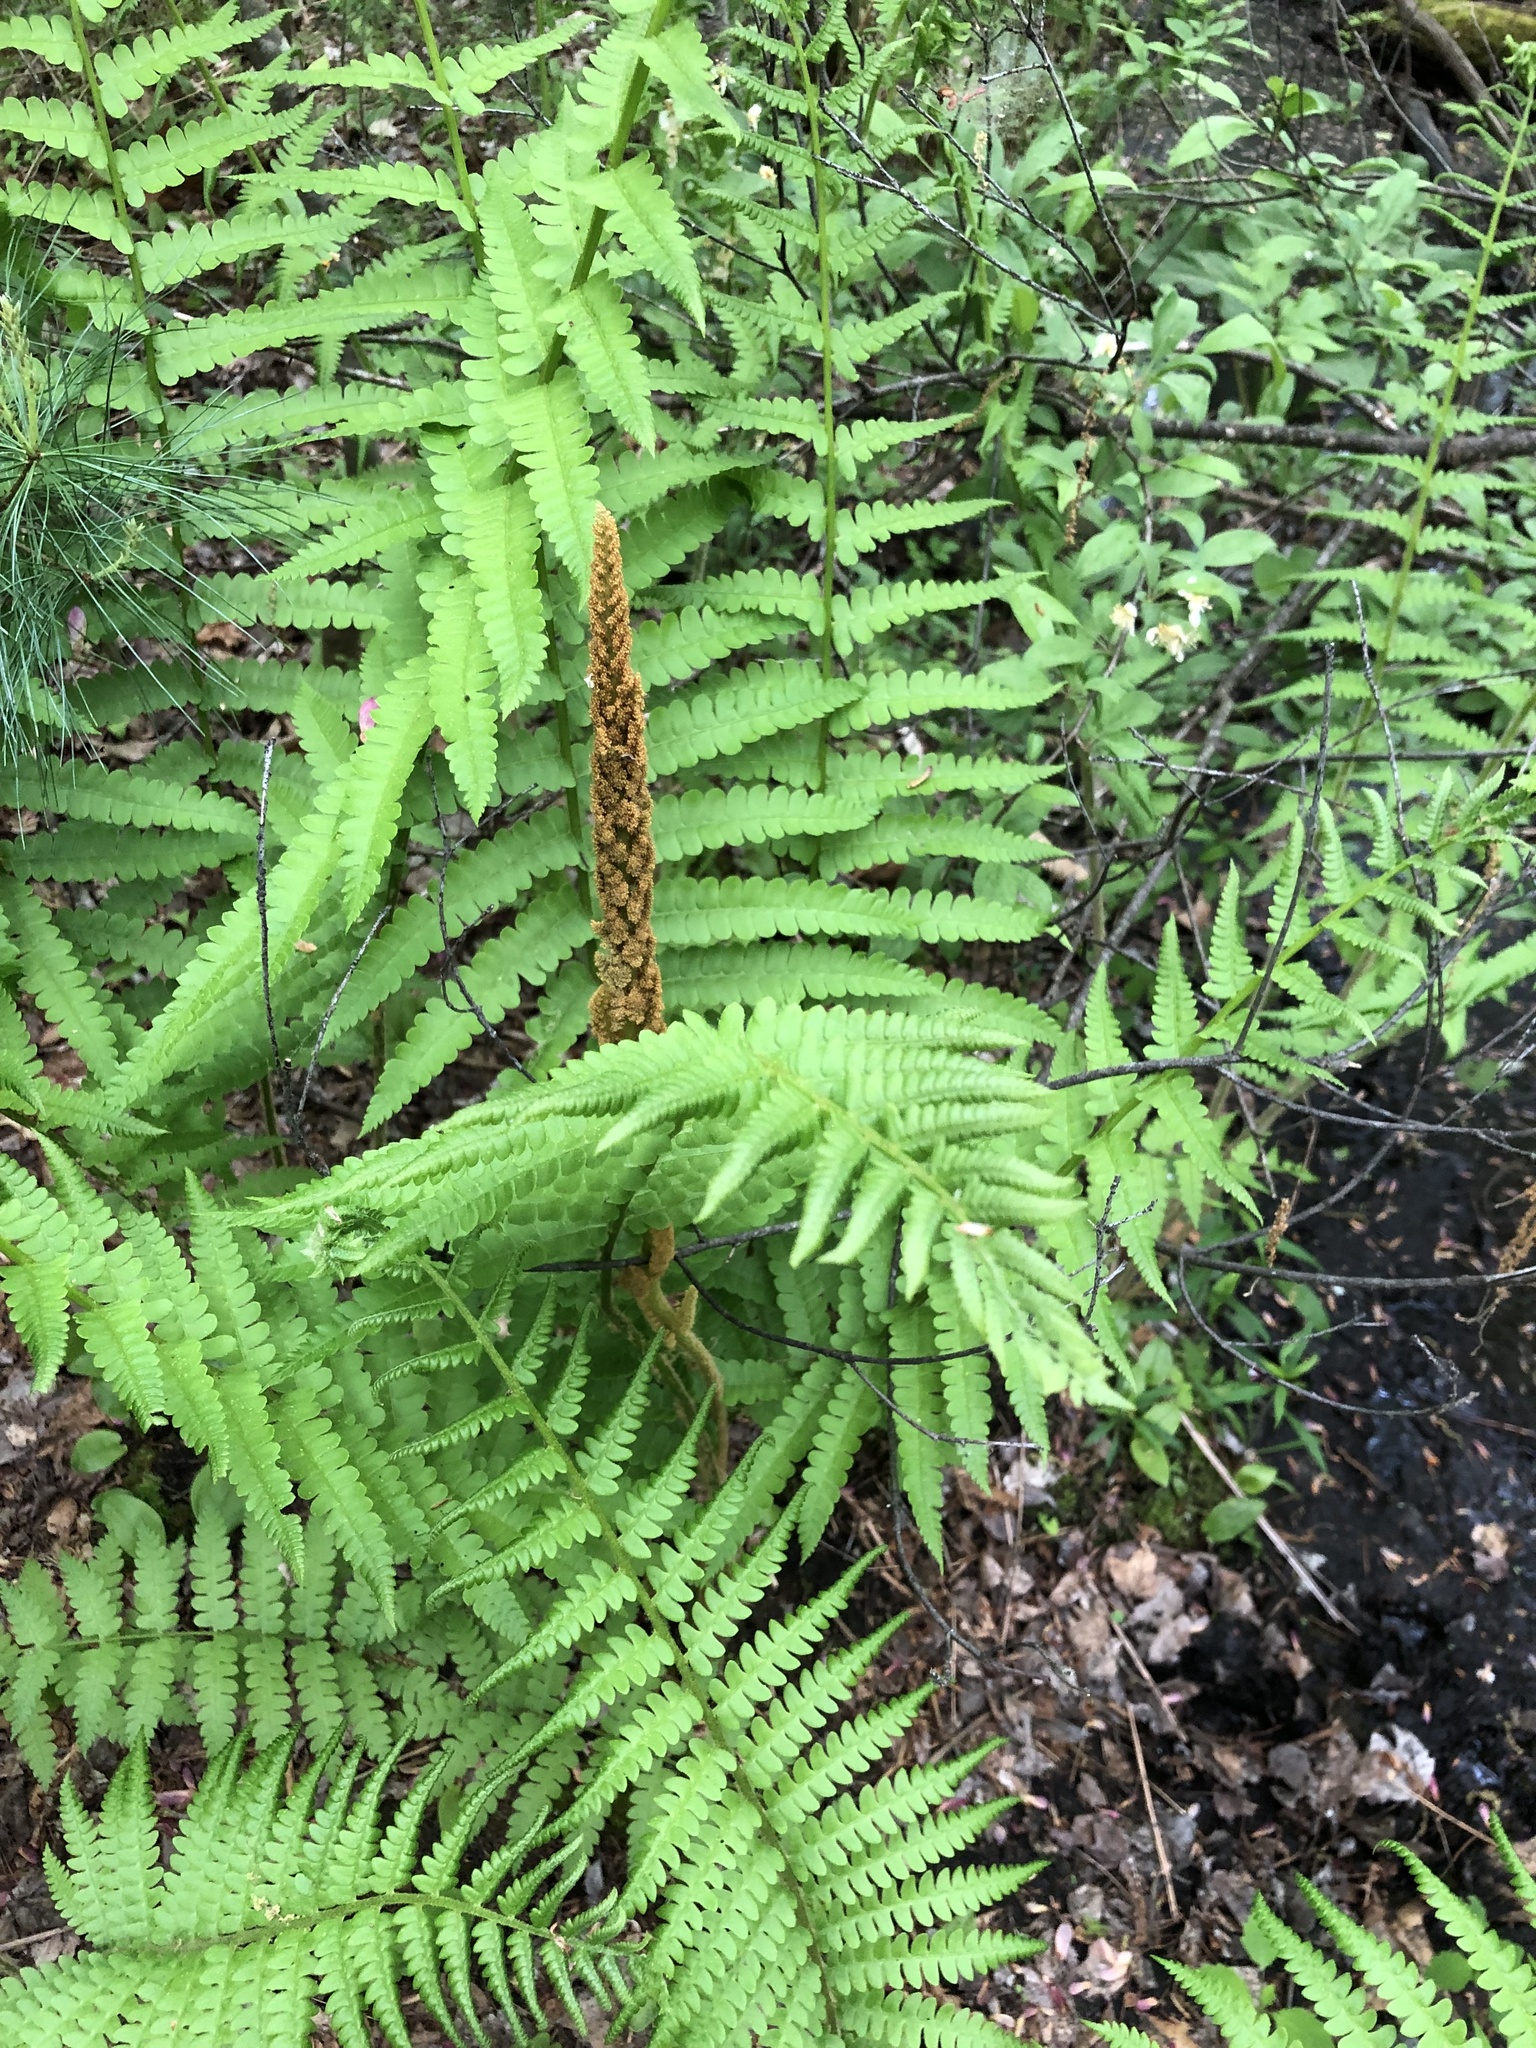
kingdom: Plantae
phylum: Tracheophyta
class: Polypodiopsida
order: Osmundales
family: Osmundaceae
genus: Osmundastrum
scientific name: Osmundastrum cinnamomeum
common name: Cinnamon fern
